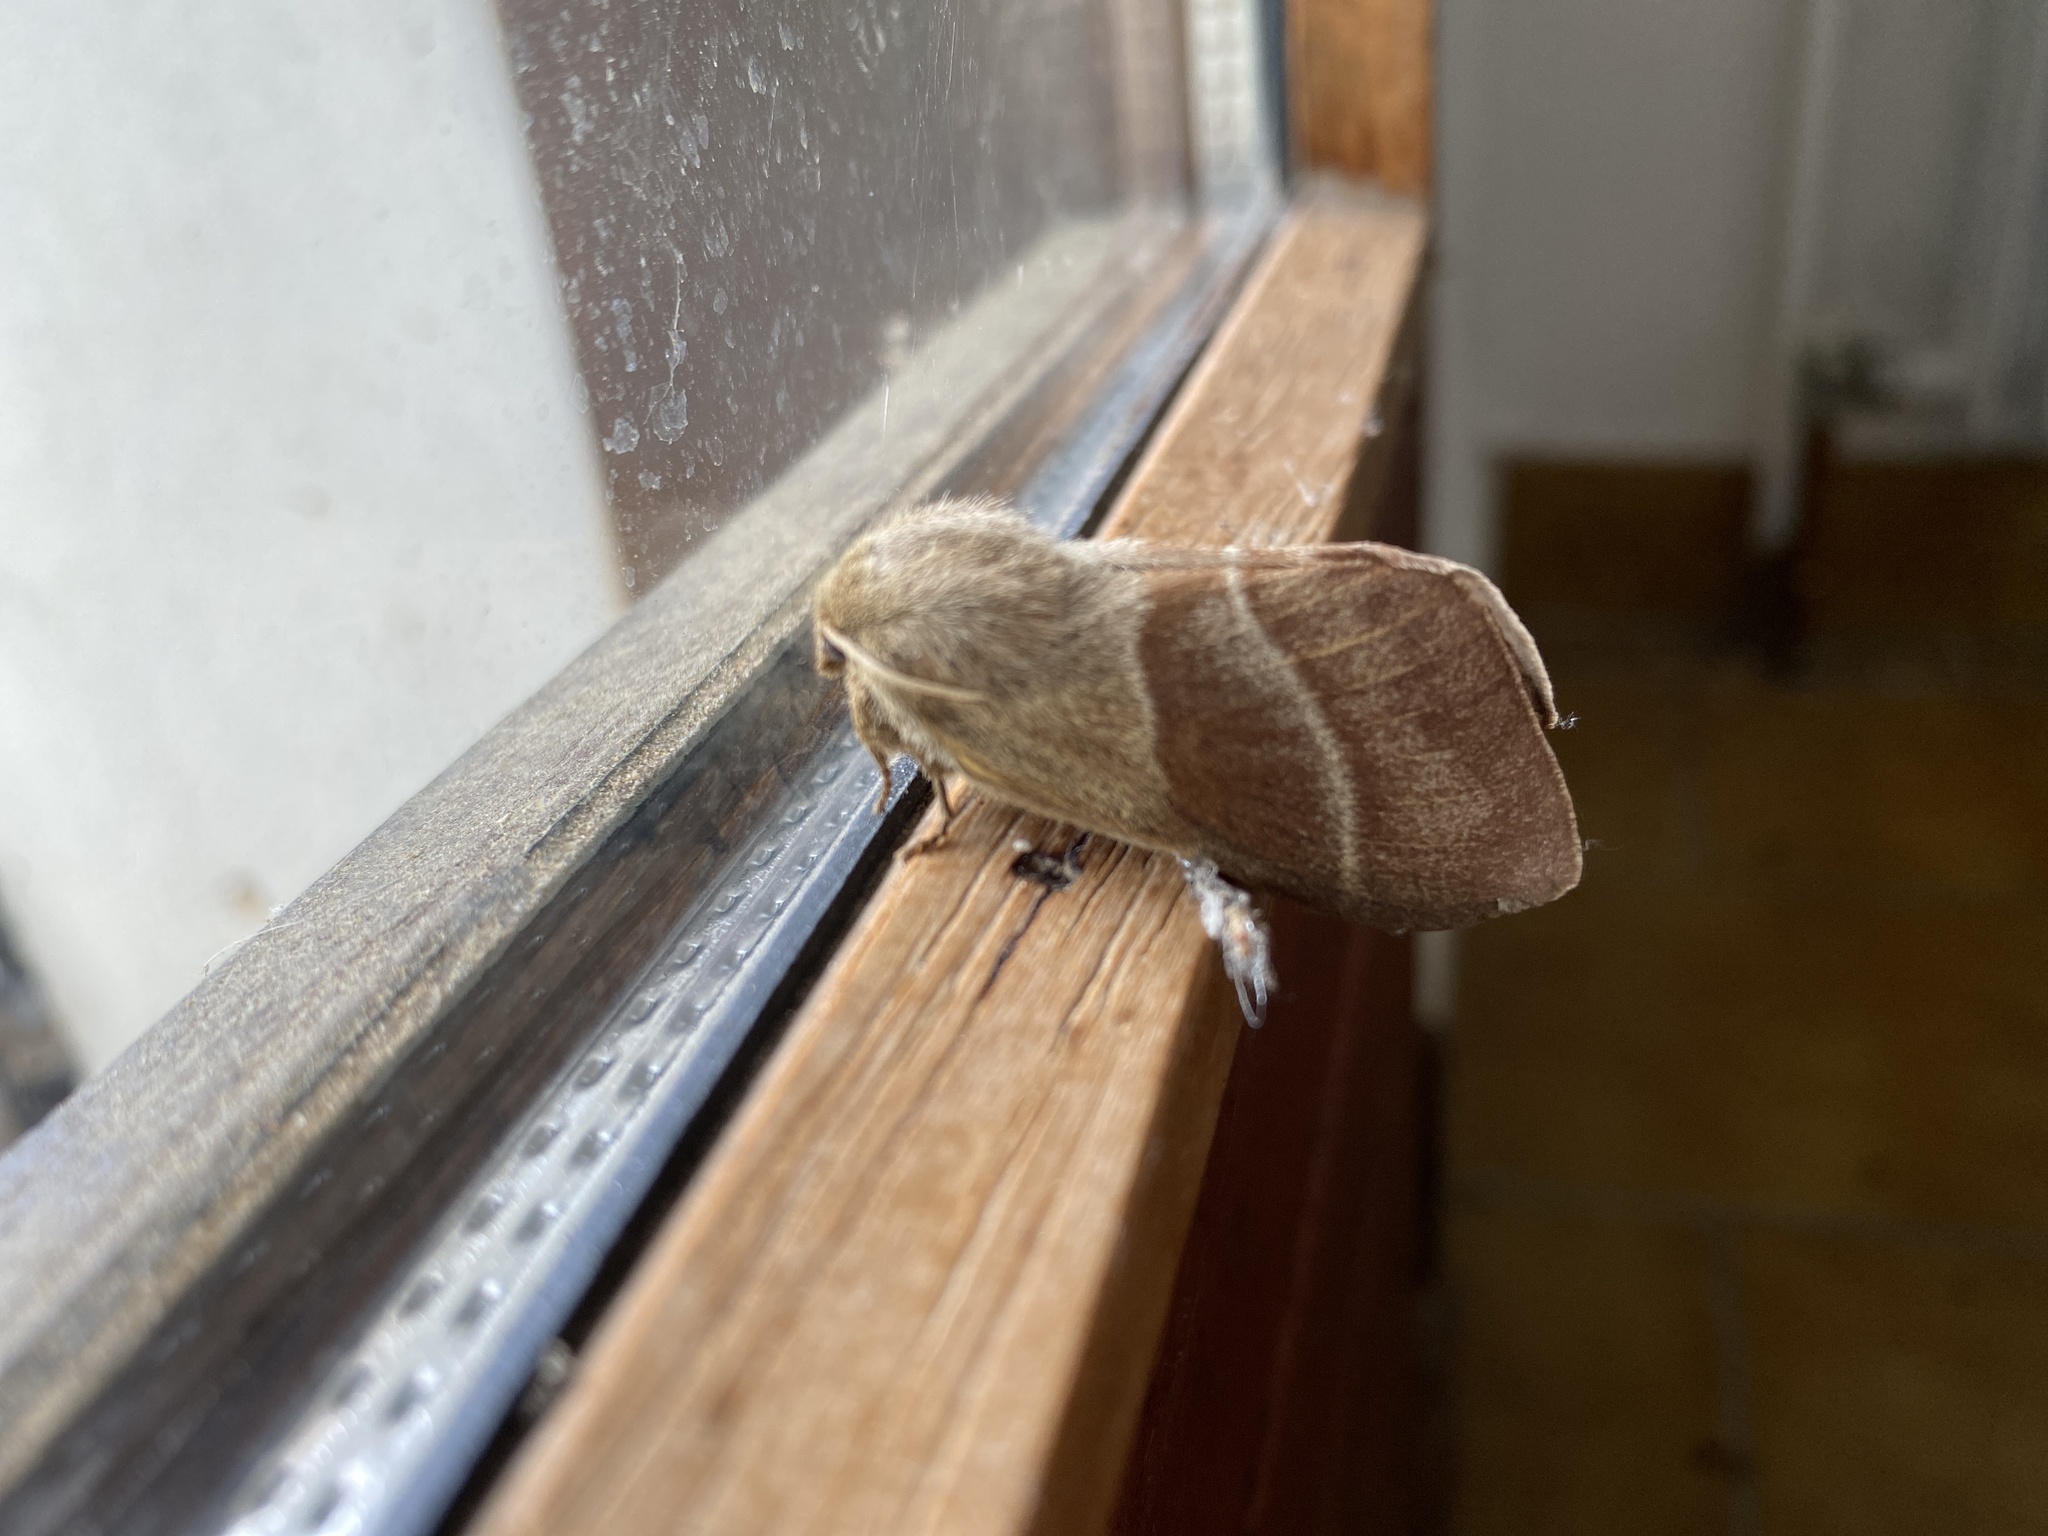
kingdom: Animalia
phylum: Arthropoda
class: Insecta
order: Lepidoptera
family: Lasiocampidae
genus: Macrothylacia
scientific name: Macrothylacia rubi
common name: Fox moth
